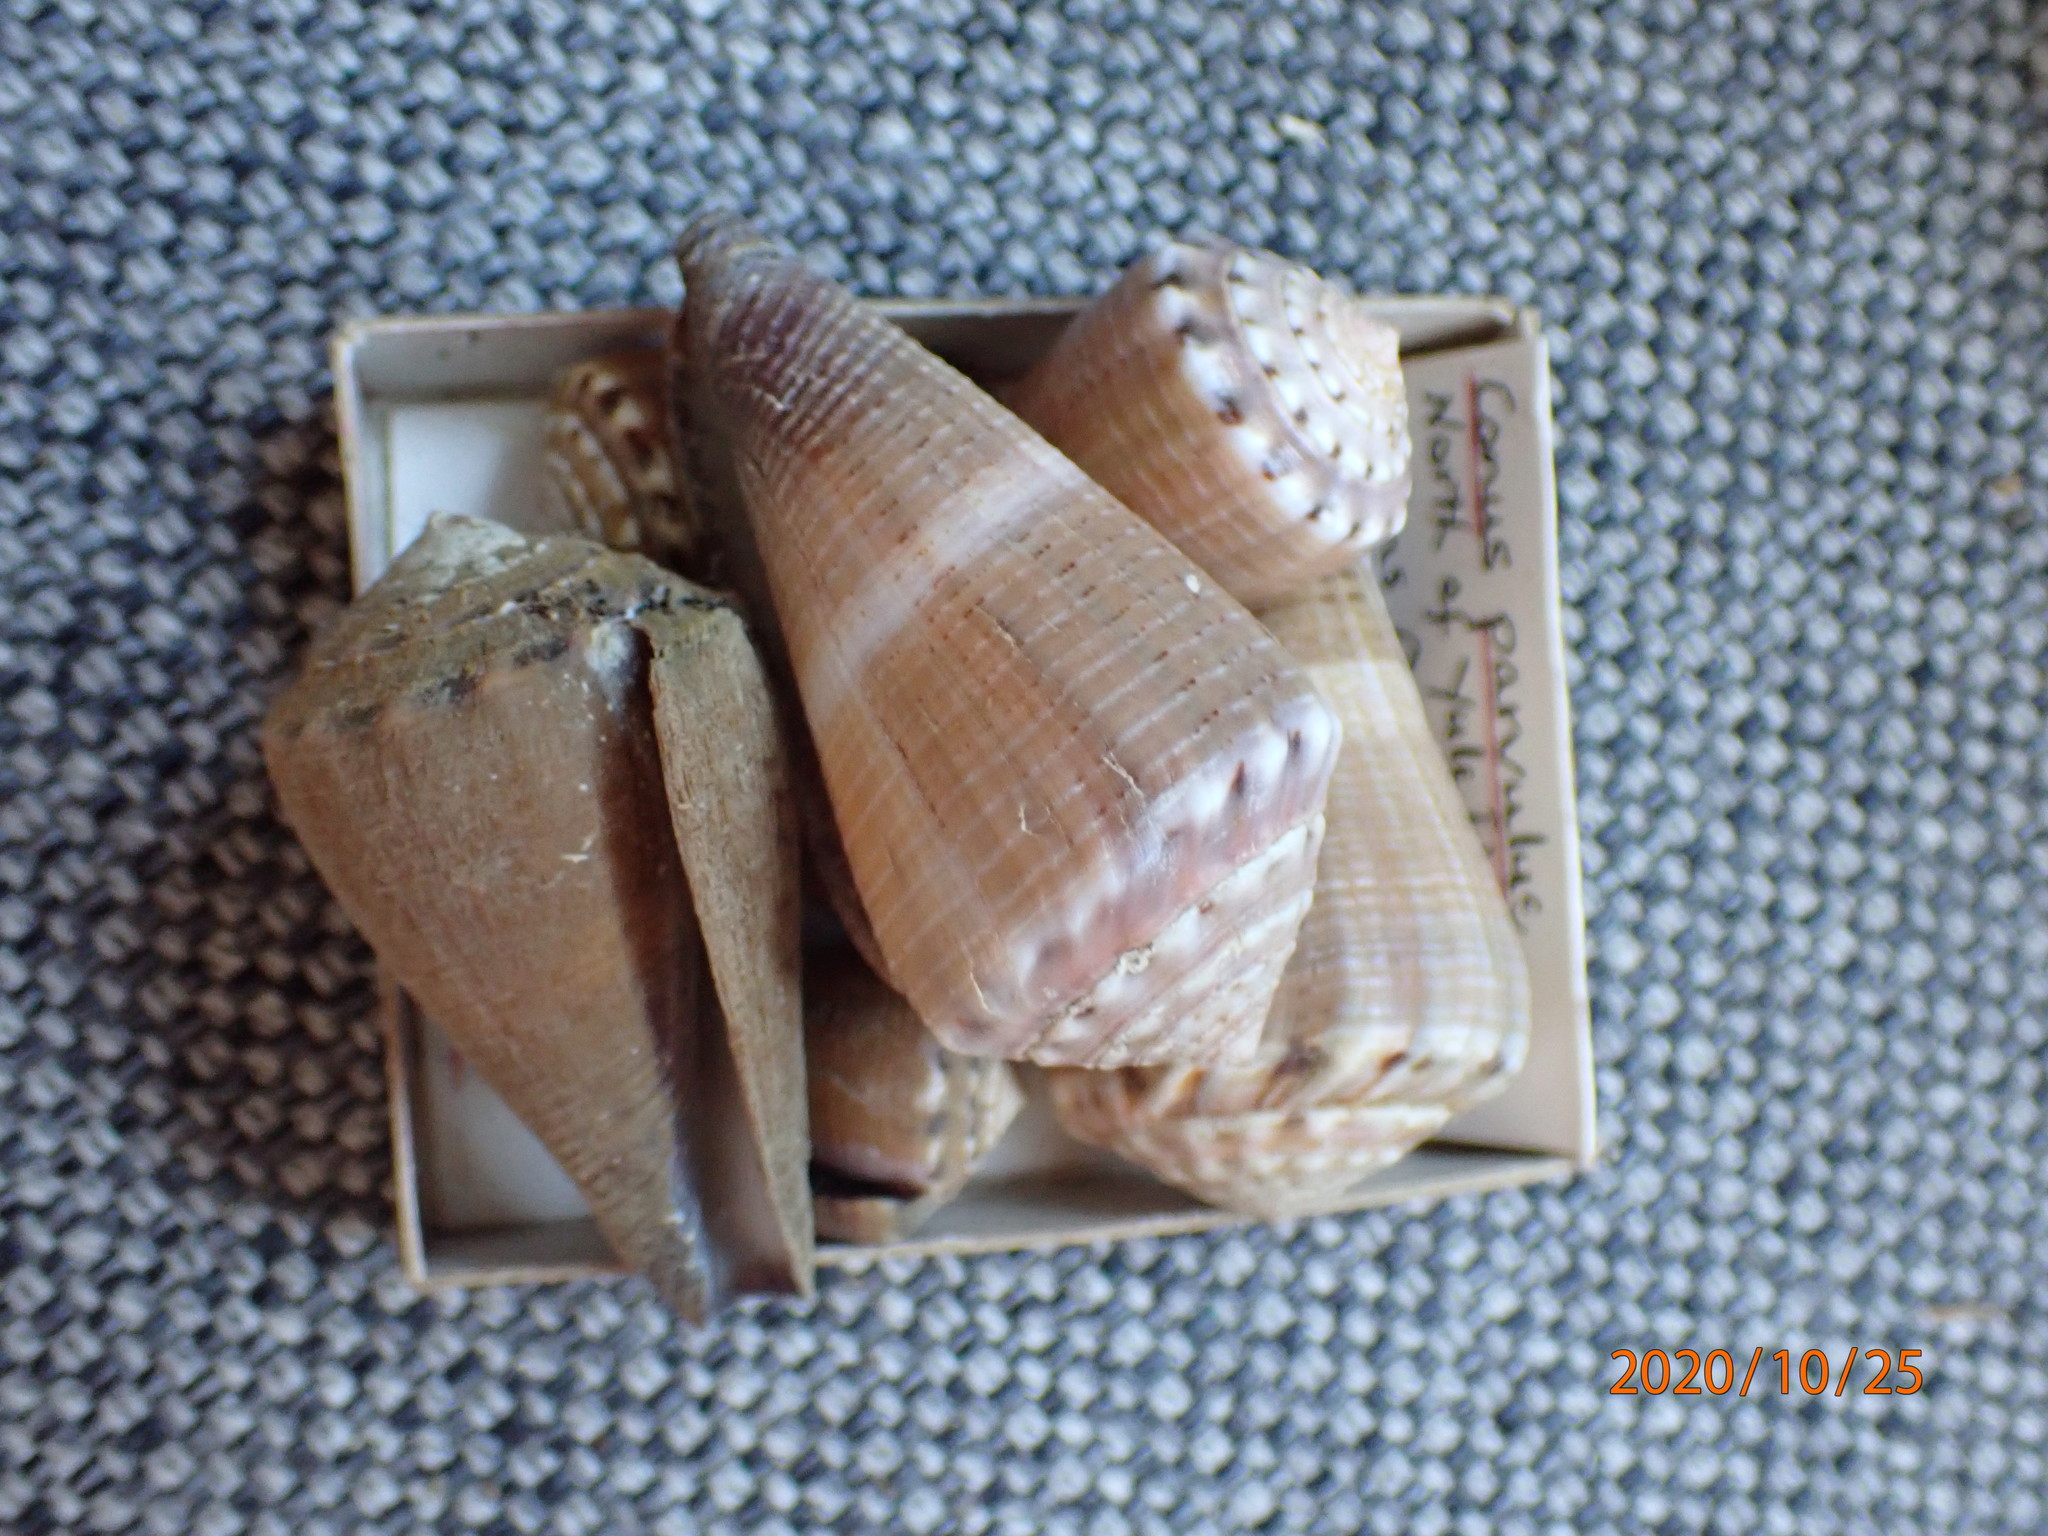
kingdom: Animalia
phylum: Mollusca
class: Gastropoda
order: Neogastropoda
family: Conidae
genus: Conus
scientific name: Conus biliosus
